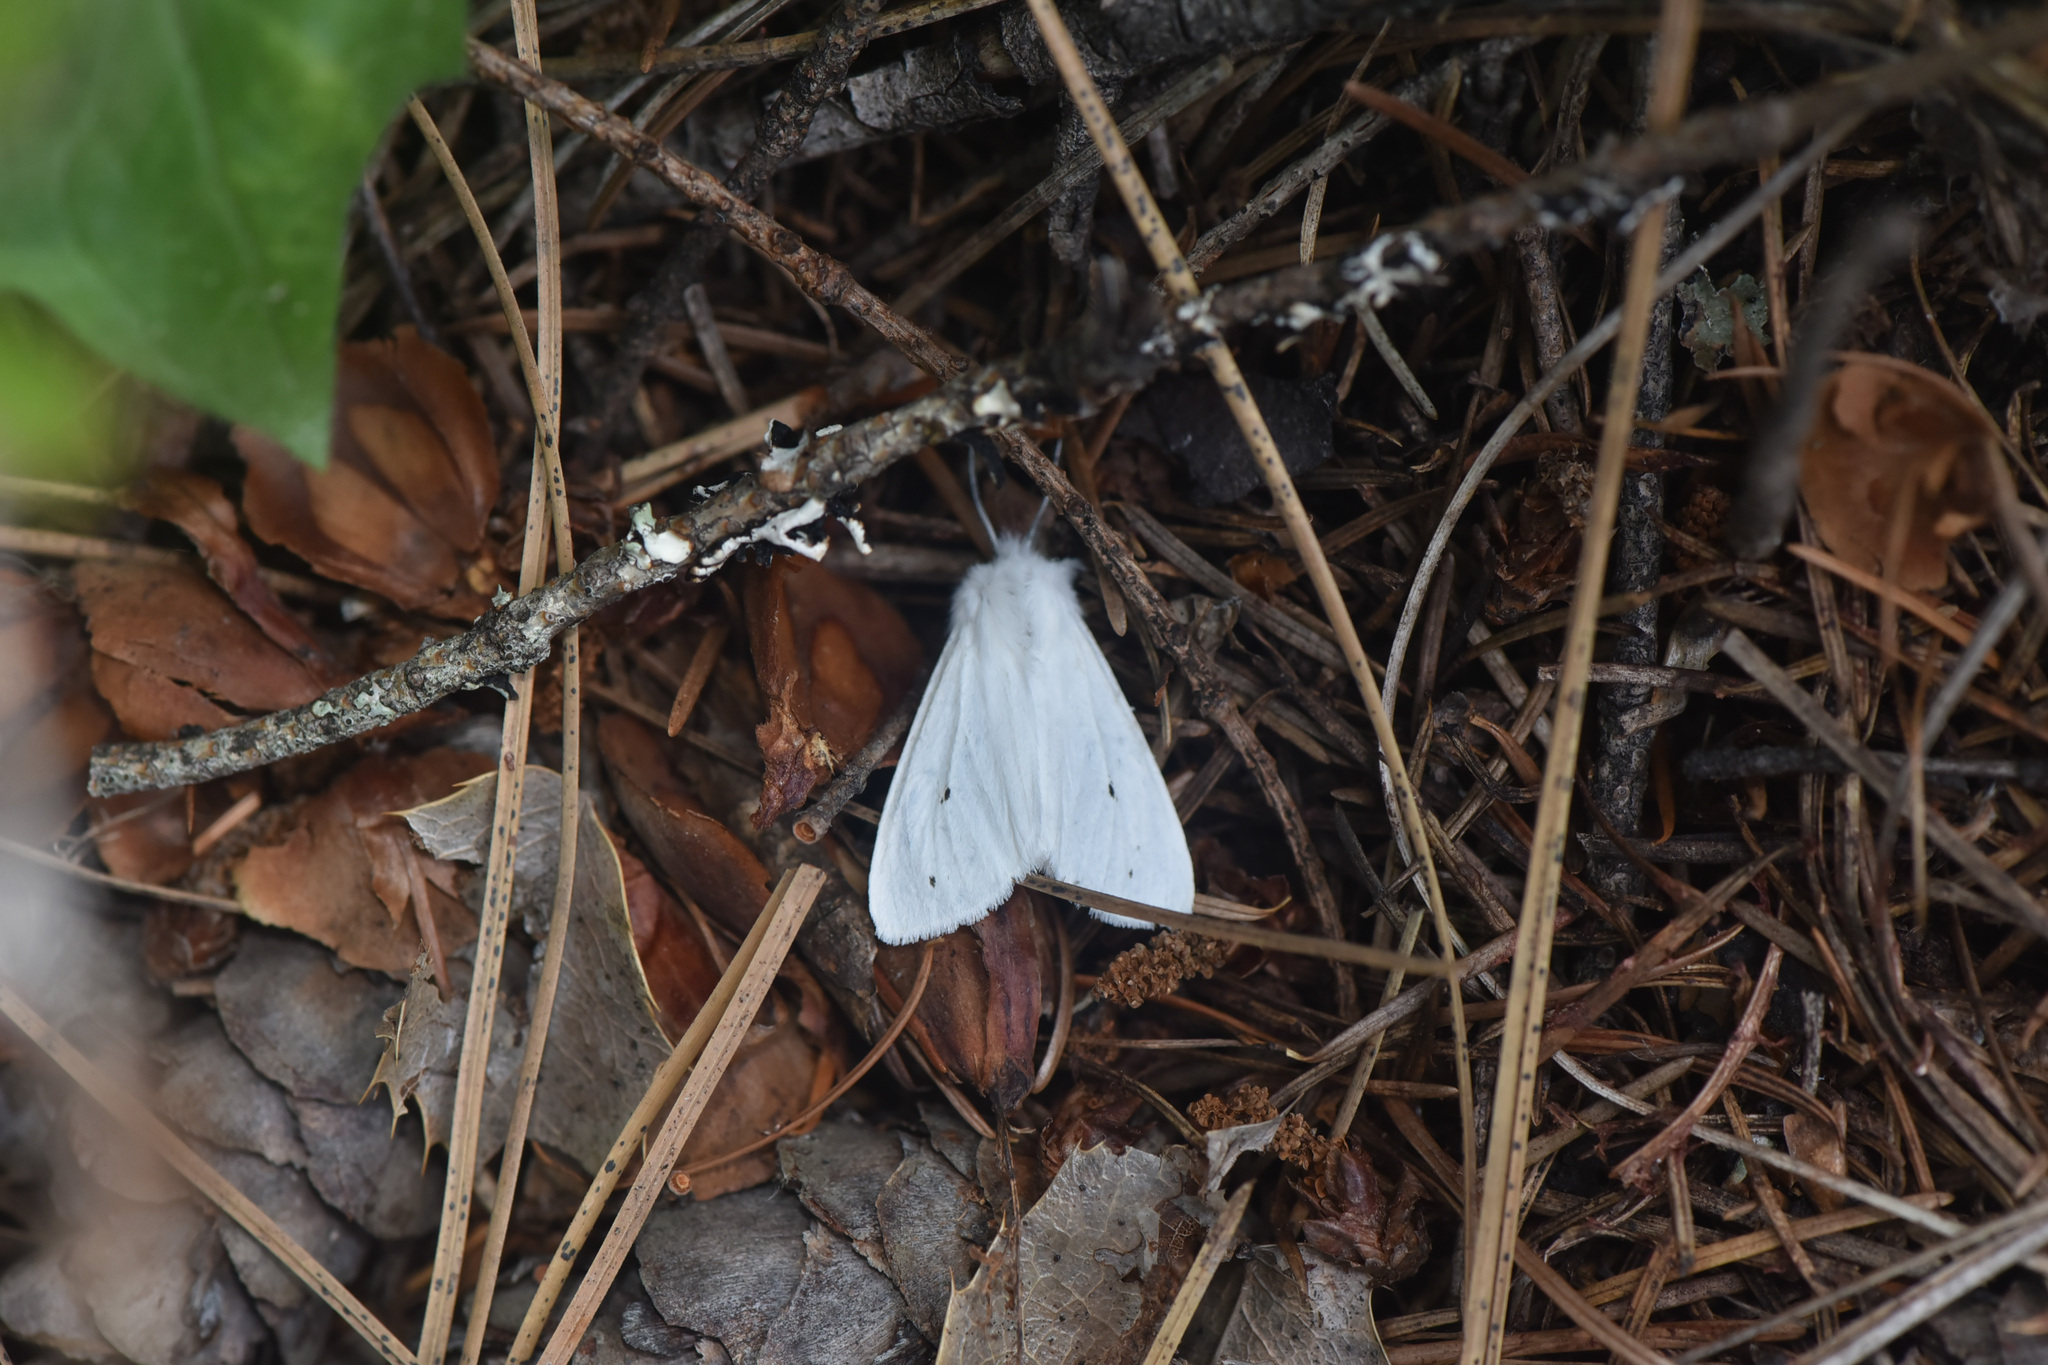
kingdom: Animalia
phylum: Arthropoda
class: Insecta
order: Lepidoptera
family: Erebidae
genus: Spilosoma
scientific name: Spilosoma virginica
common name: Virginia tiger moth
